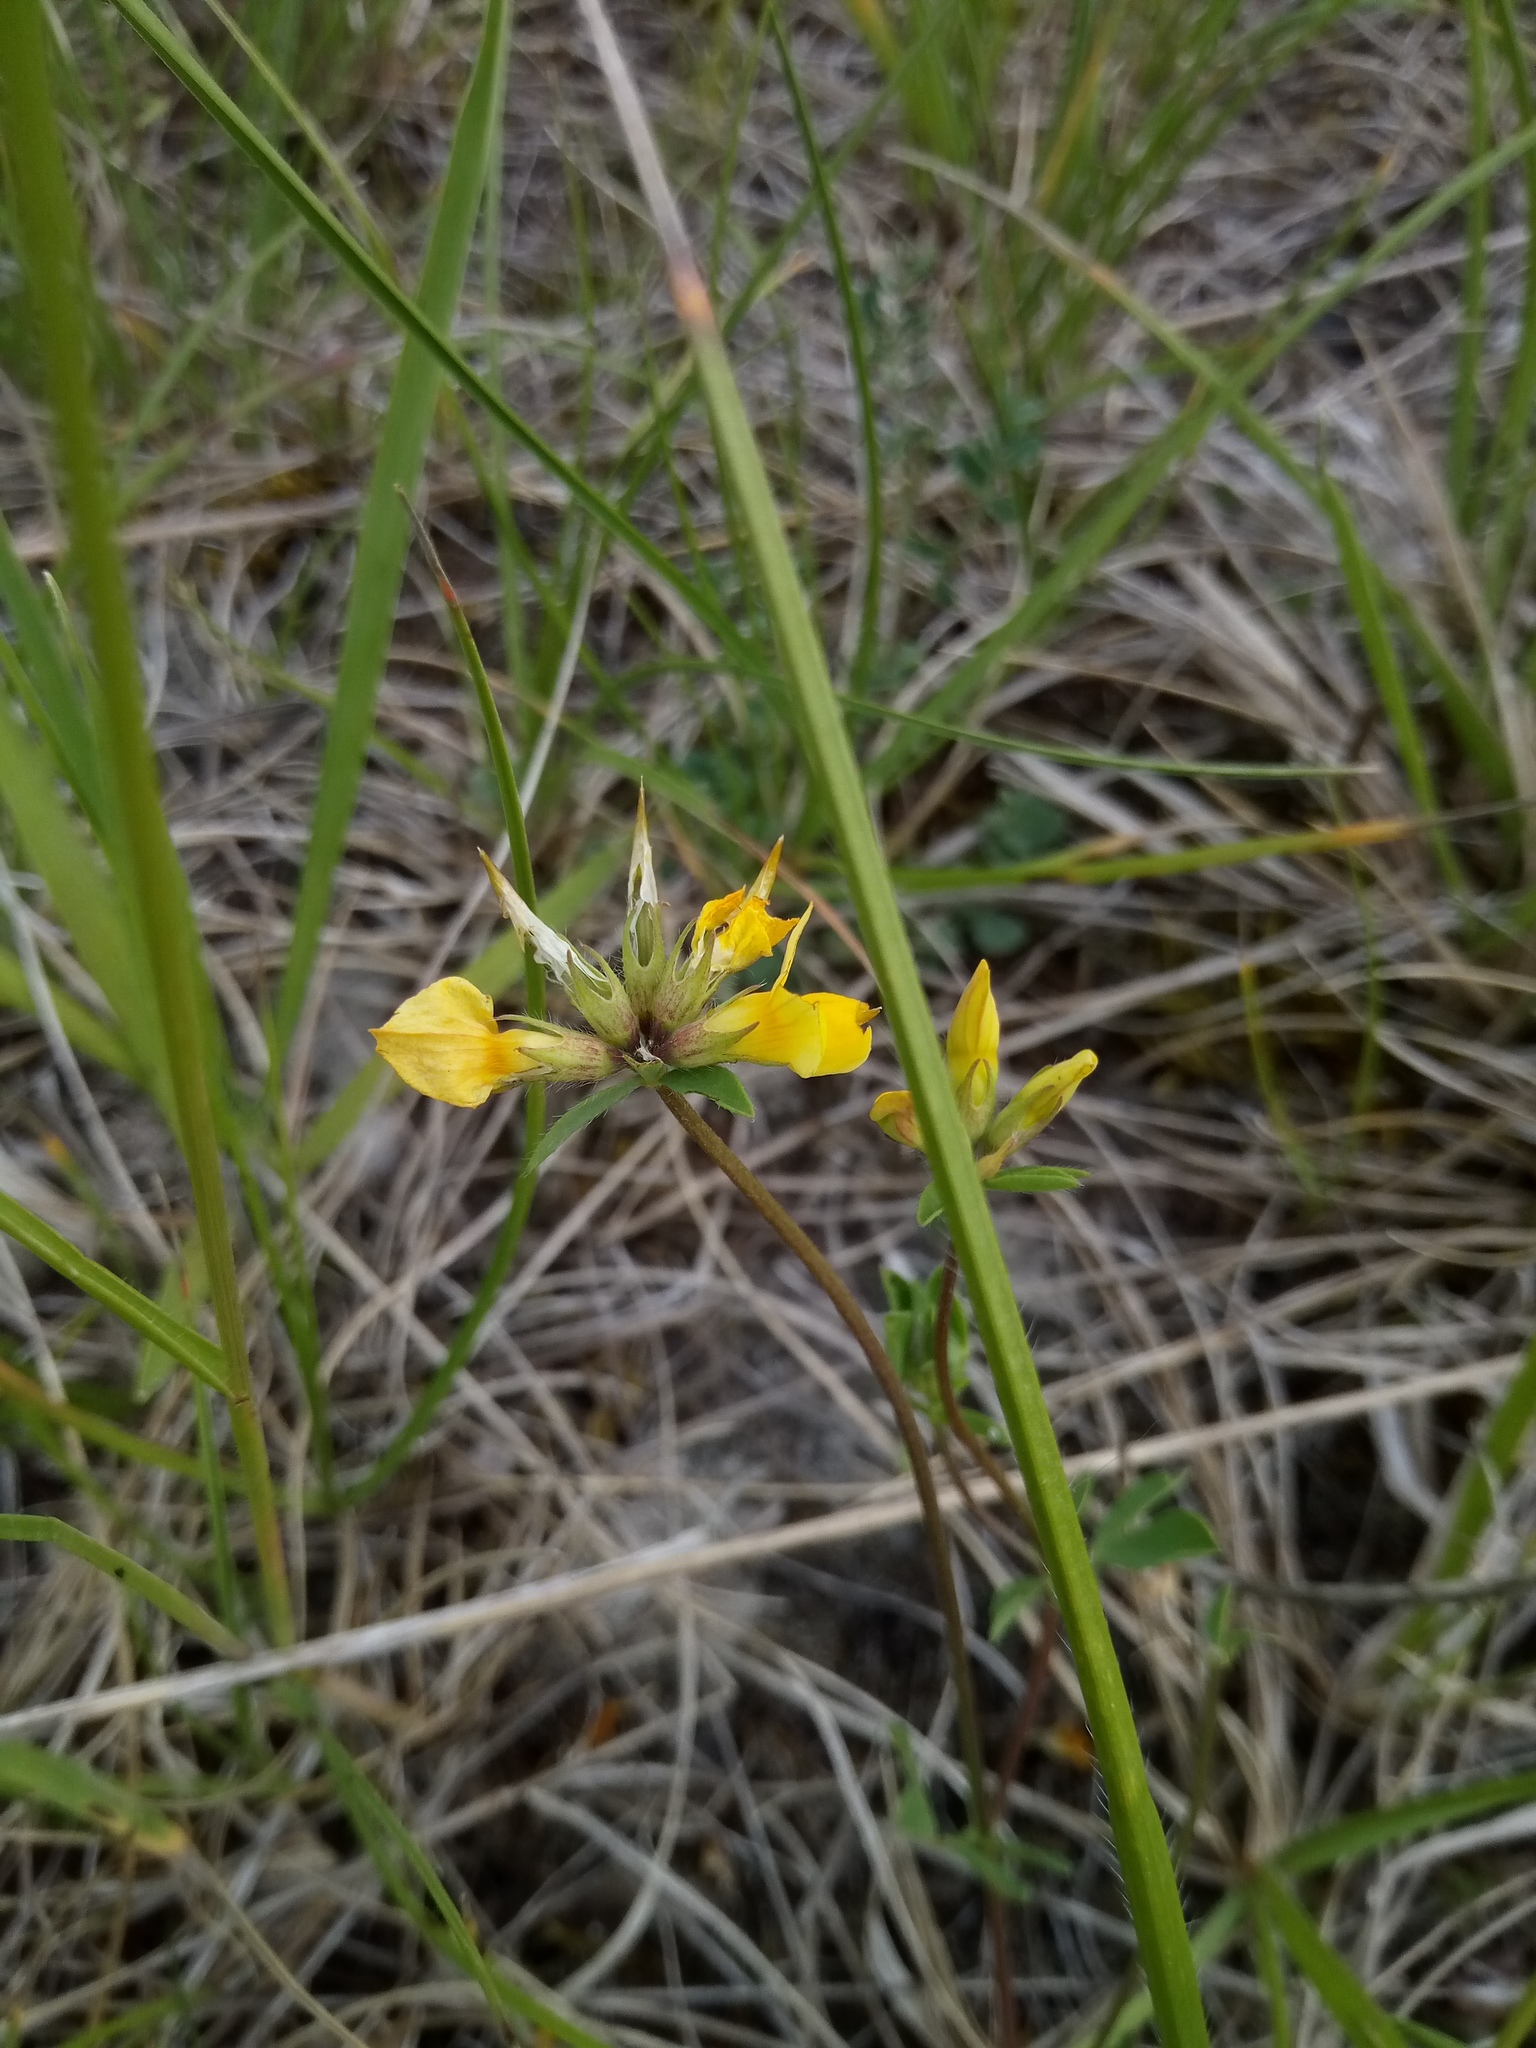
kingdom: Plantae
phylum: Tracheophyta
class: Magnoliopsida
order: Fabales
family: Fabaceae
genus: Lotus
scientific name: Lotus corniculatus
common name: Common bird's-foot-trefoil
